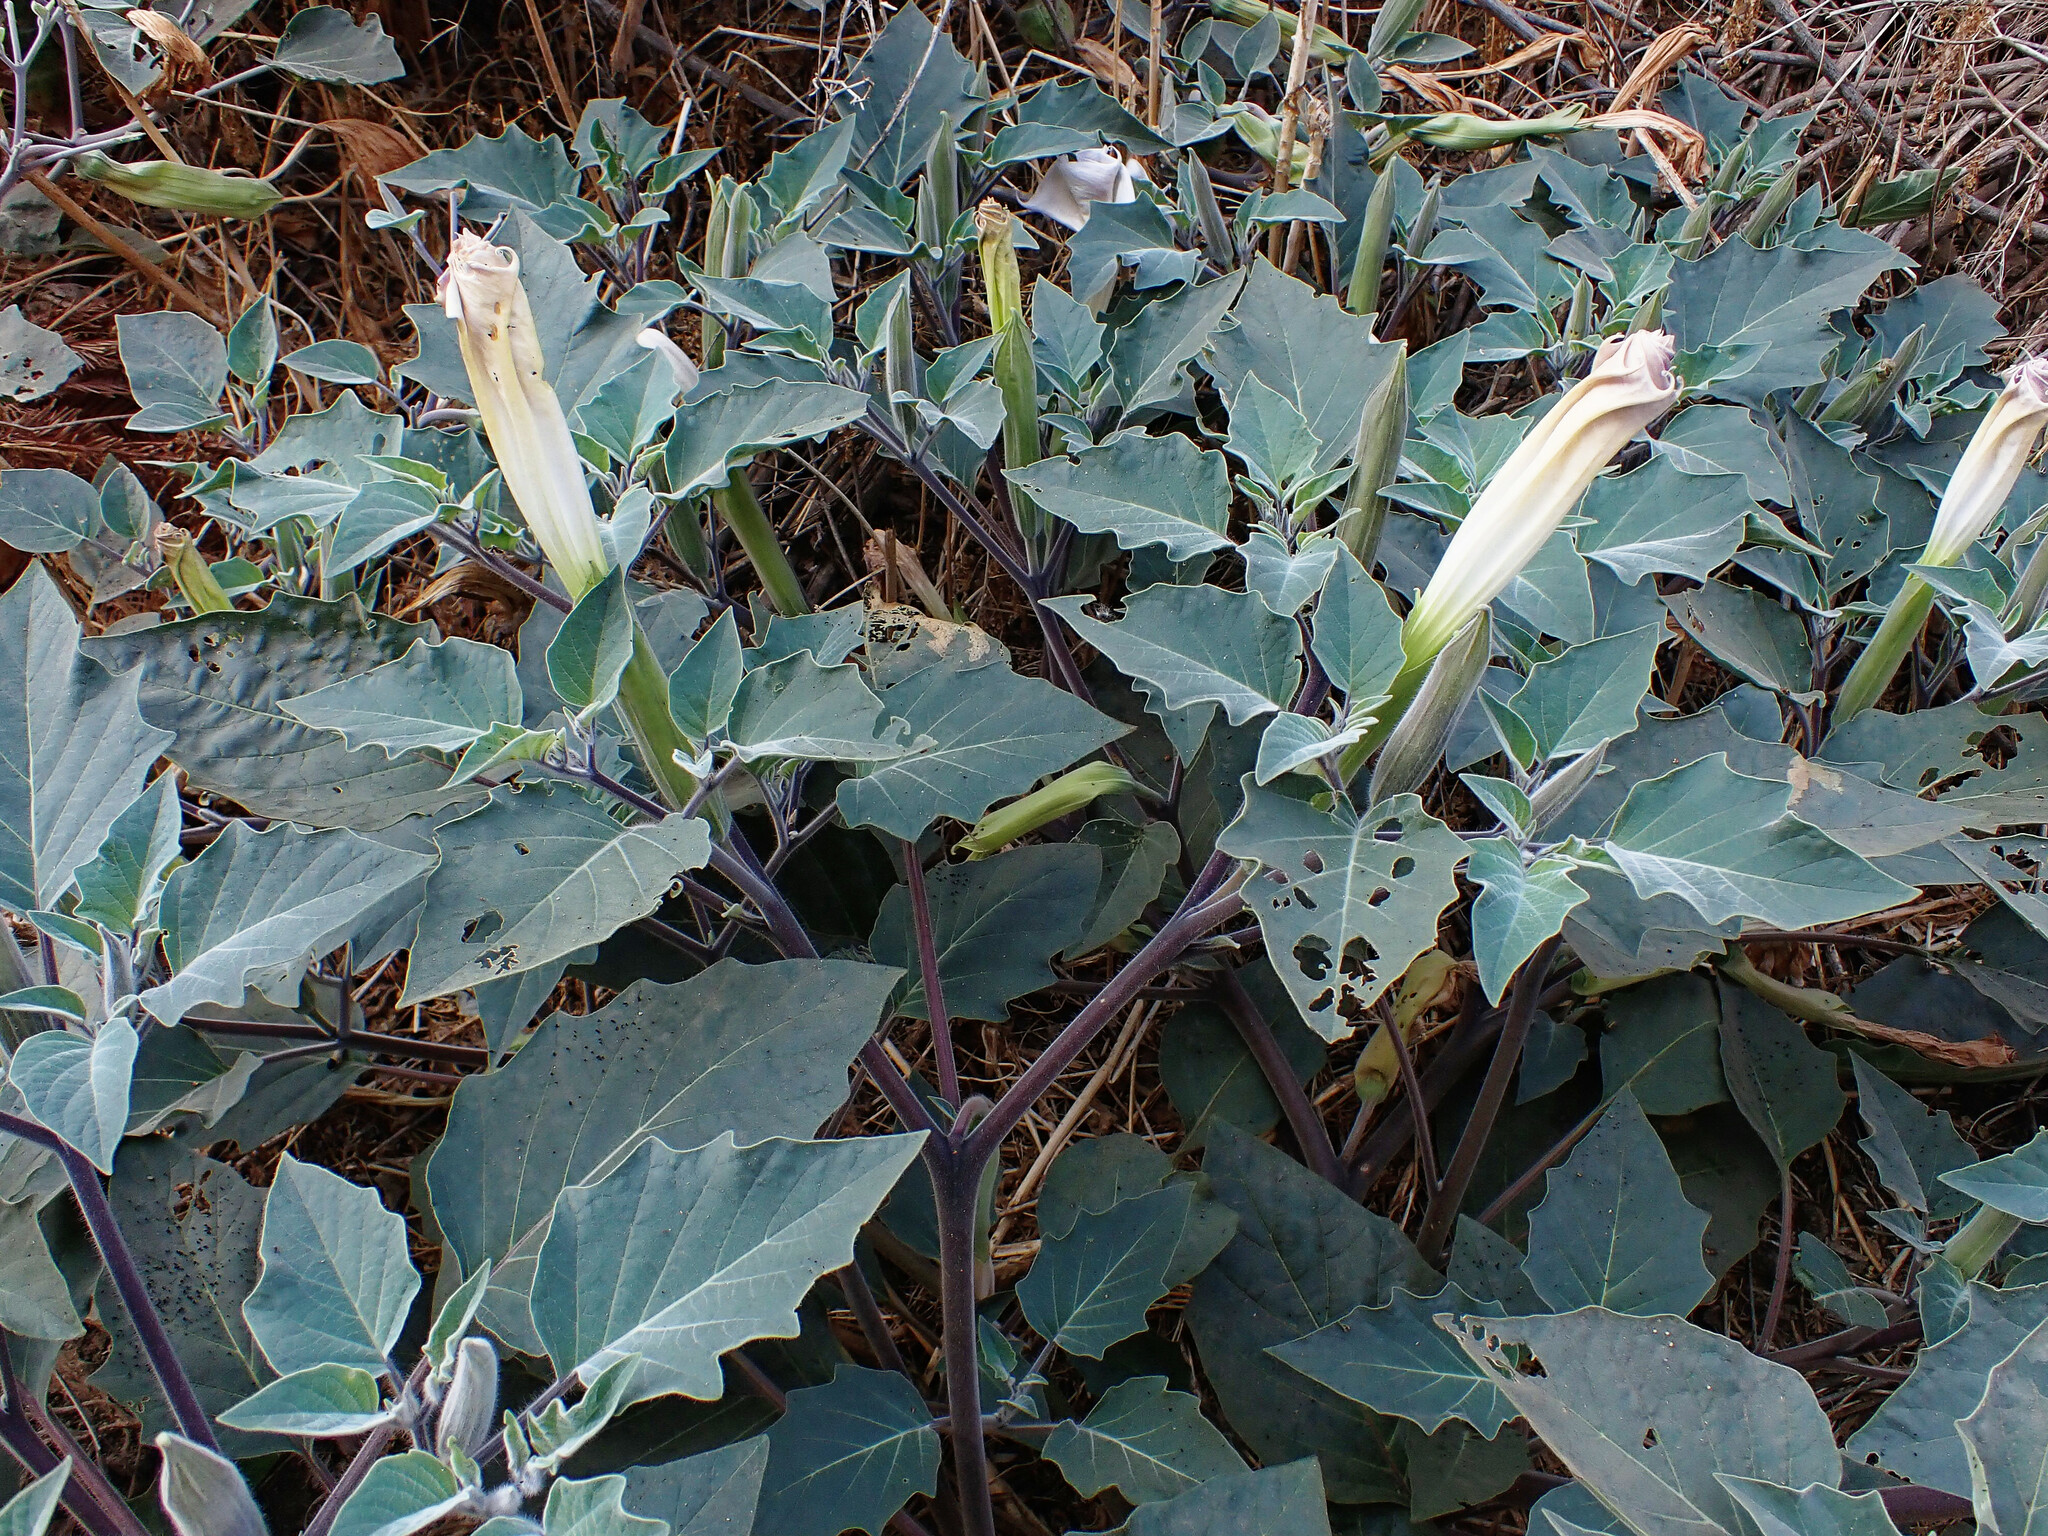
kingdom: Plantae
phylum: Tracheophyta
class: Magnoliopsida
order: Solanales
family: Solanaceae
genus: Datura
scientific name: Datura wrightii
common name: Sacred thorn-apple
